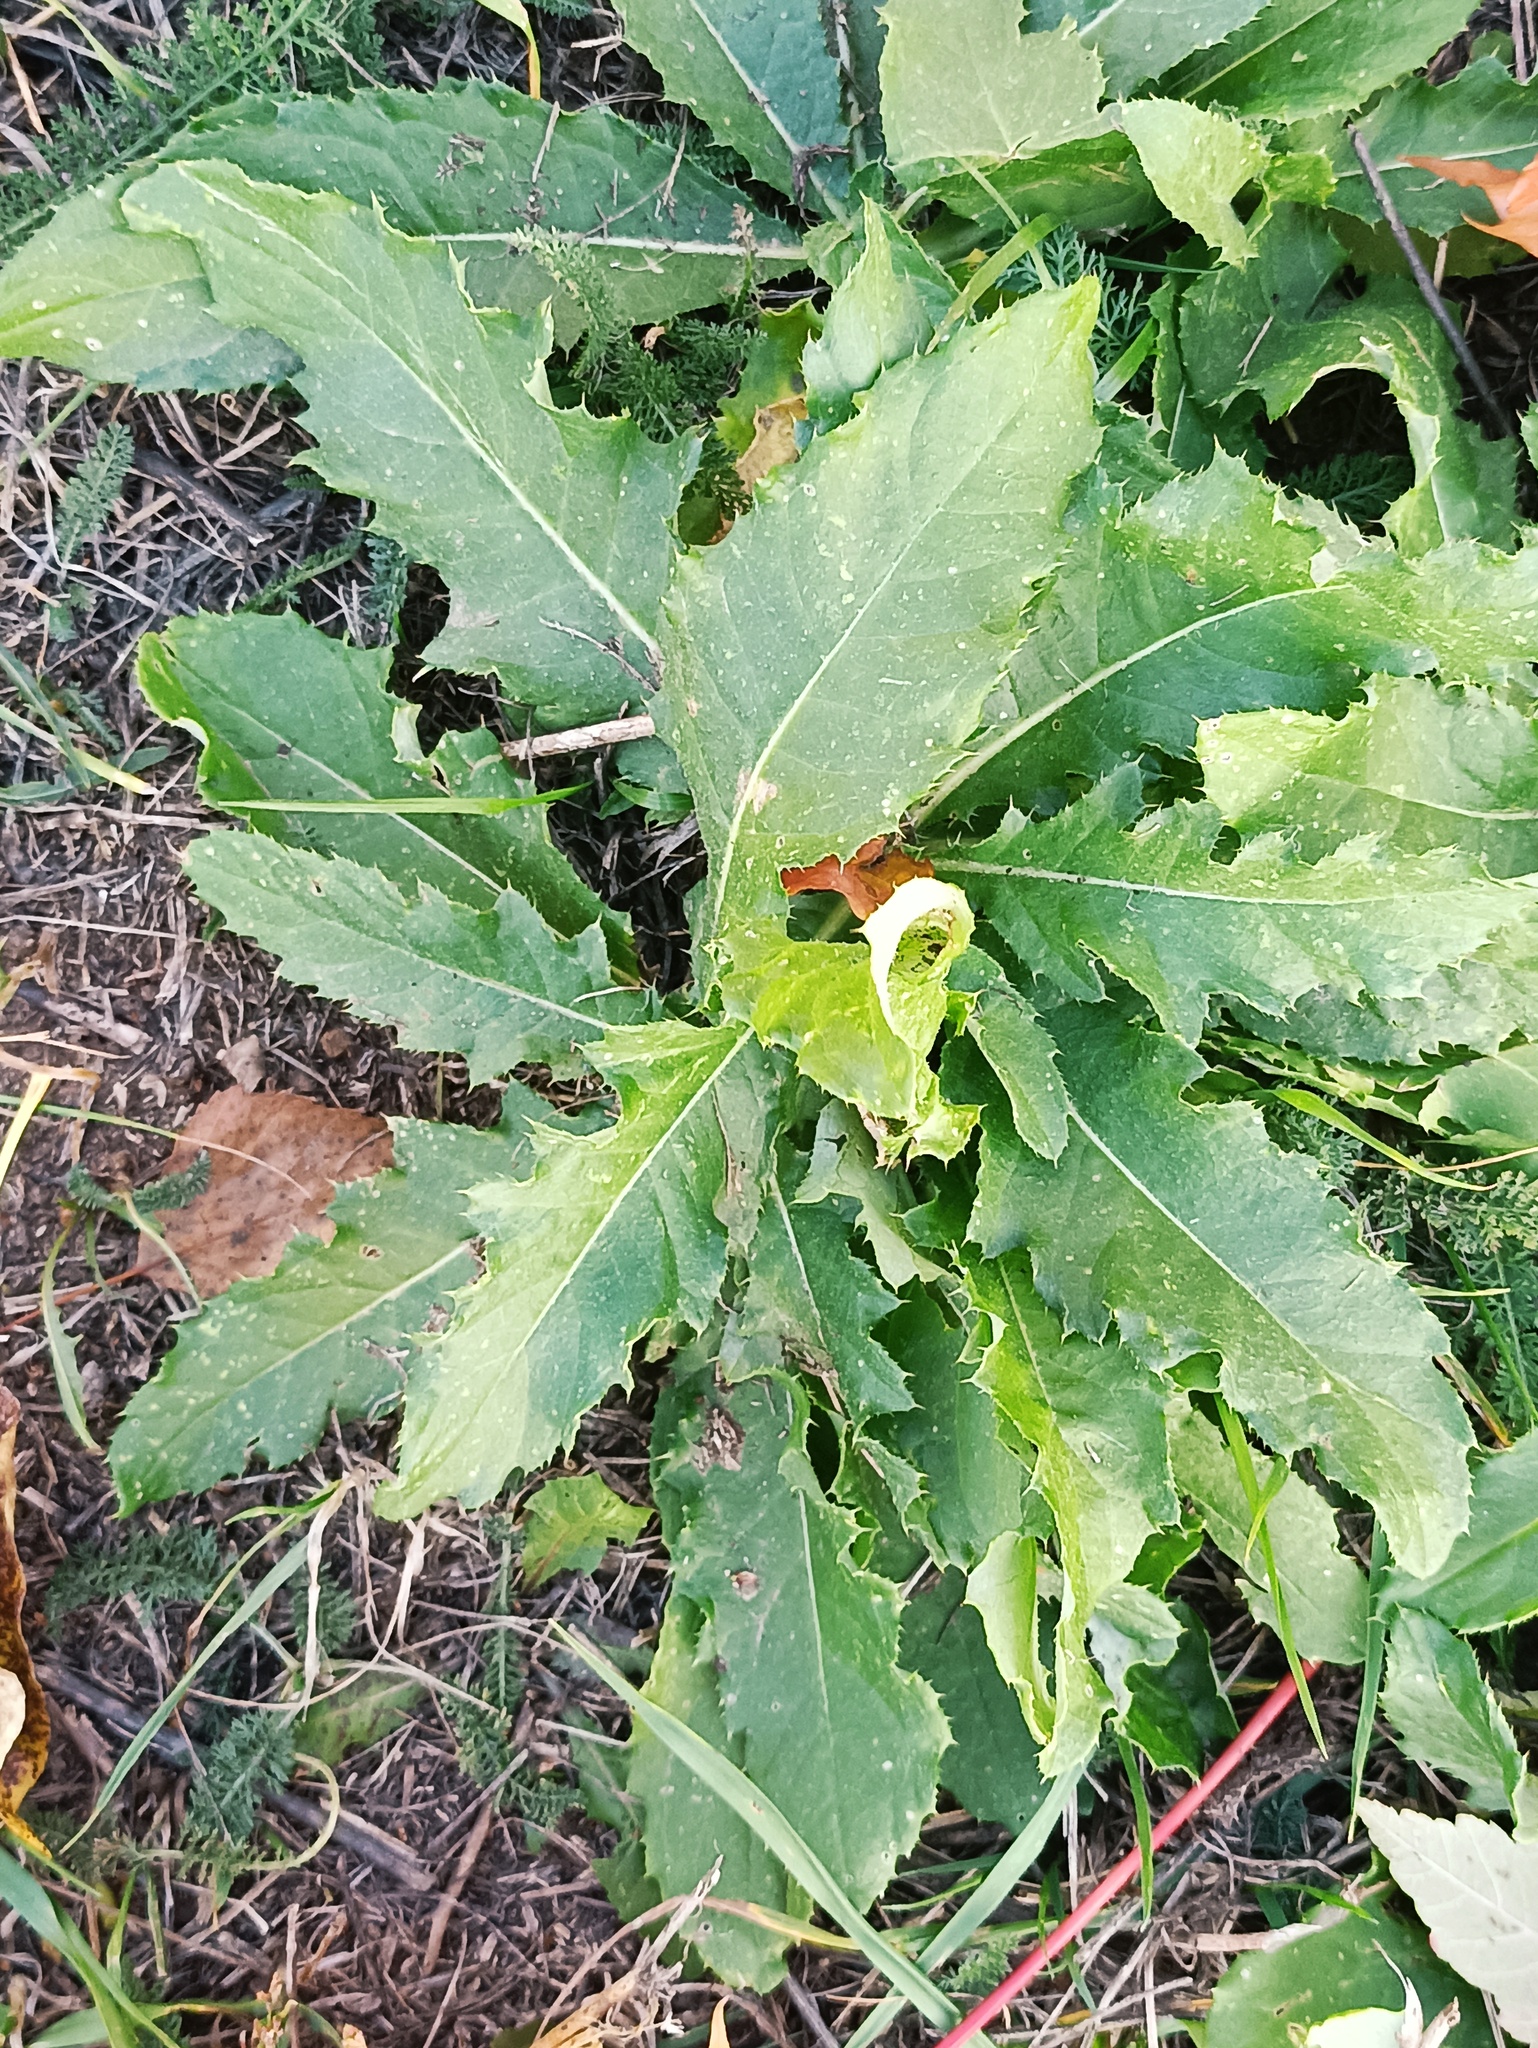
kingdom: Plantae
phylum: Tracheophyta
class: Magnoliopsida
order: Asterales
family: Asteraceae
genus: Cirsium
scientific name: Cirsium arvense
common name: Creeping thistle
